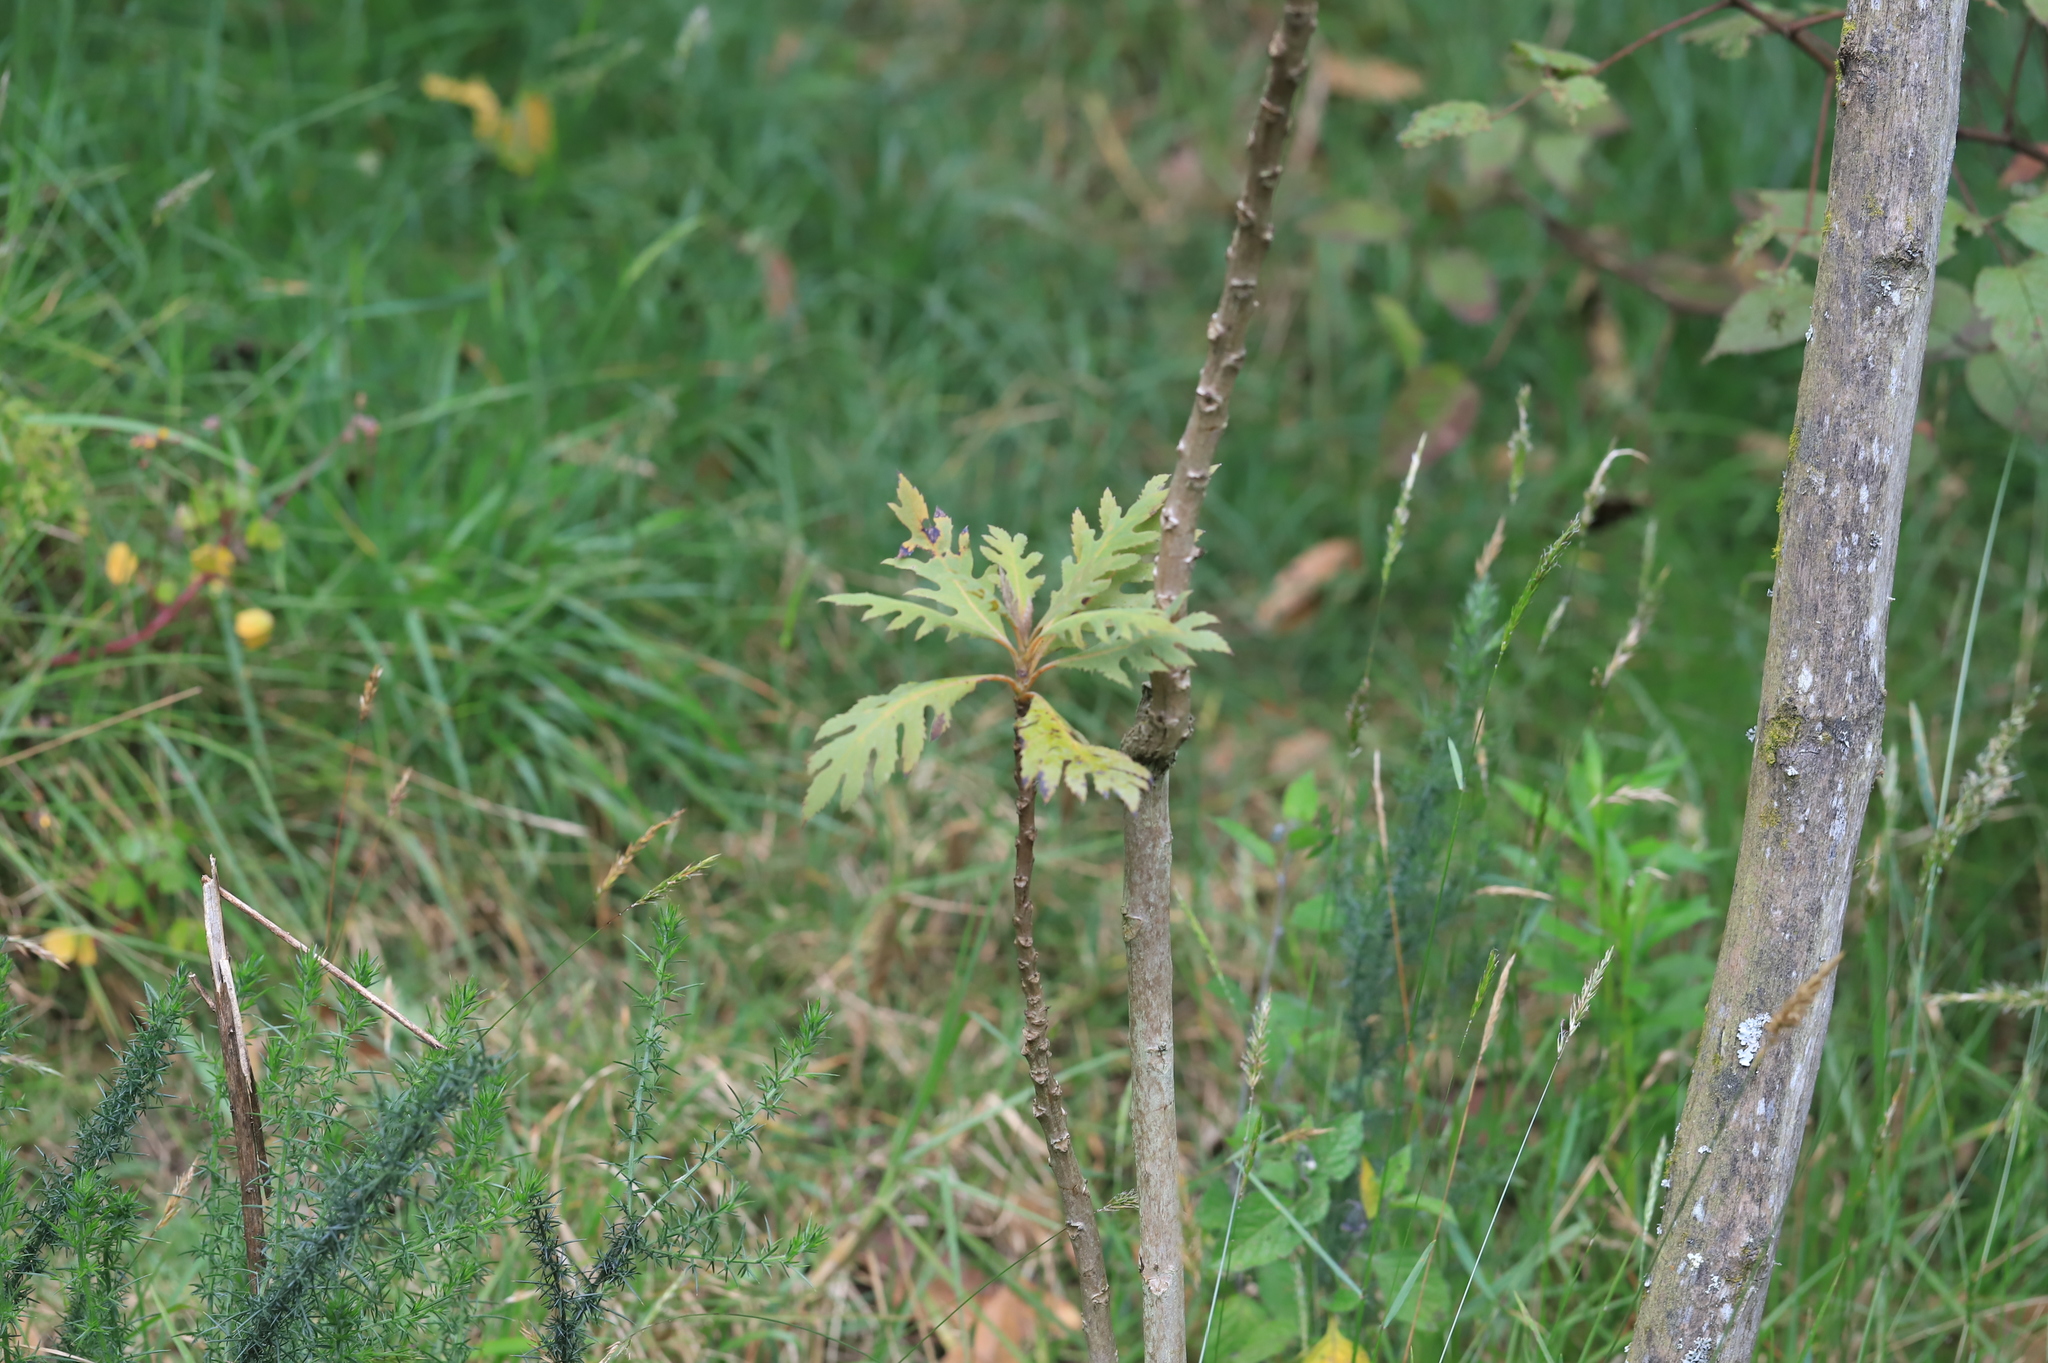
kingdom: Plantae
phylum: Tracheophyta
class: Magnoliopsida
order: Ranunculales
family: Papaveraceae
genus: Bocconia
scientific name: Bocconia frutescens
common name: Tree poppy
